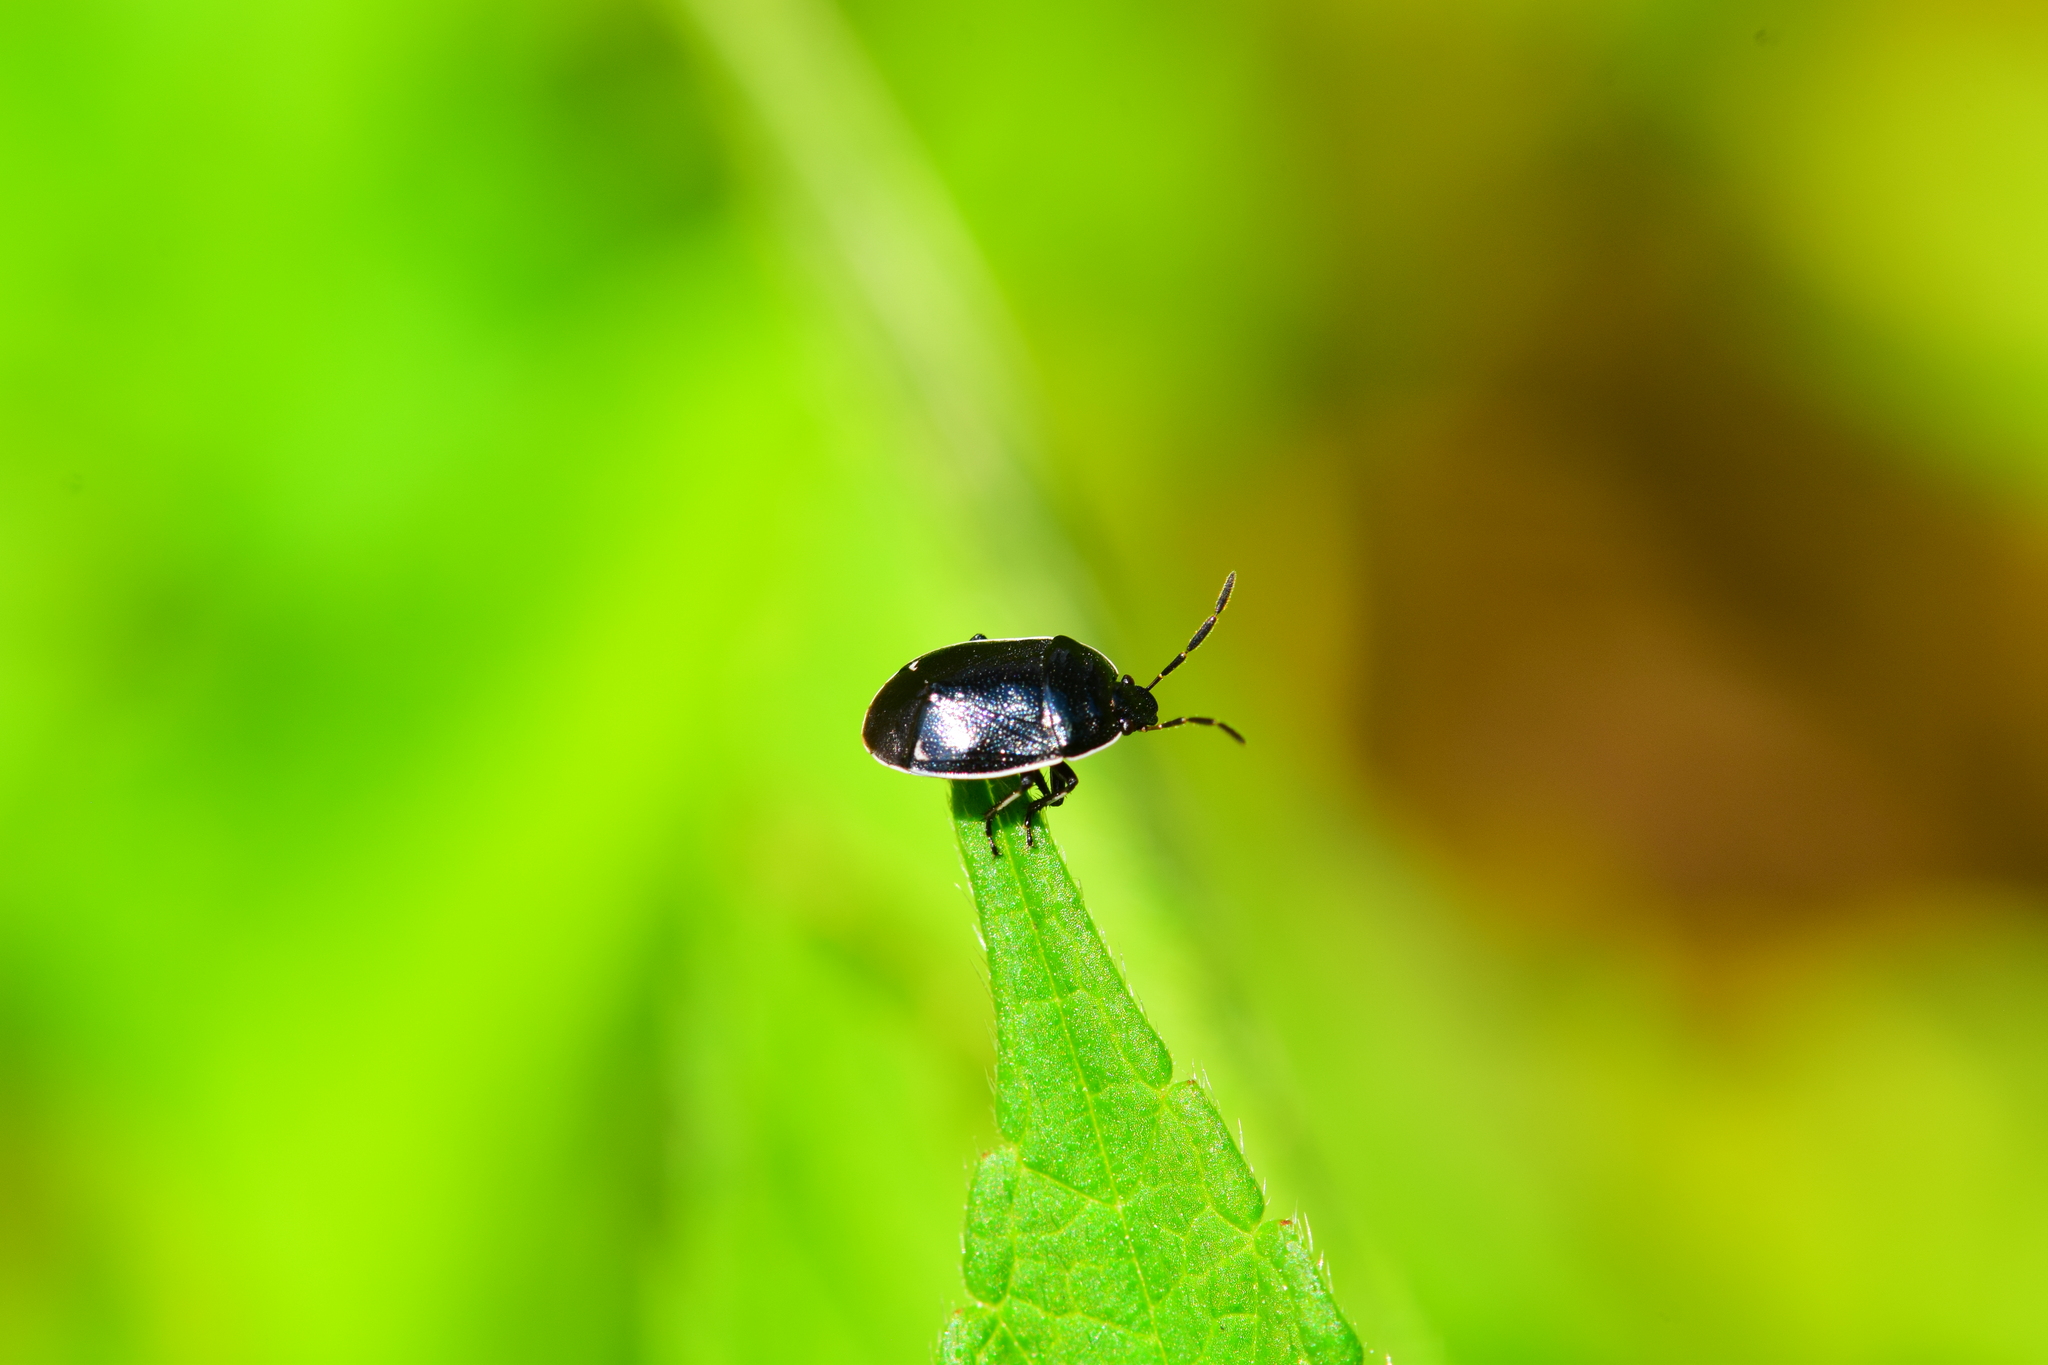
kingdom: Animalia
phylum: Arthropoda
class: Insecta
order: Hemiptera
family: Cydnidae
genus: Sehirus
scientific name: Sehirus cinctus
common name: White-margined burrower bug
